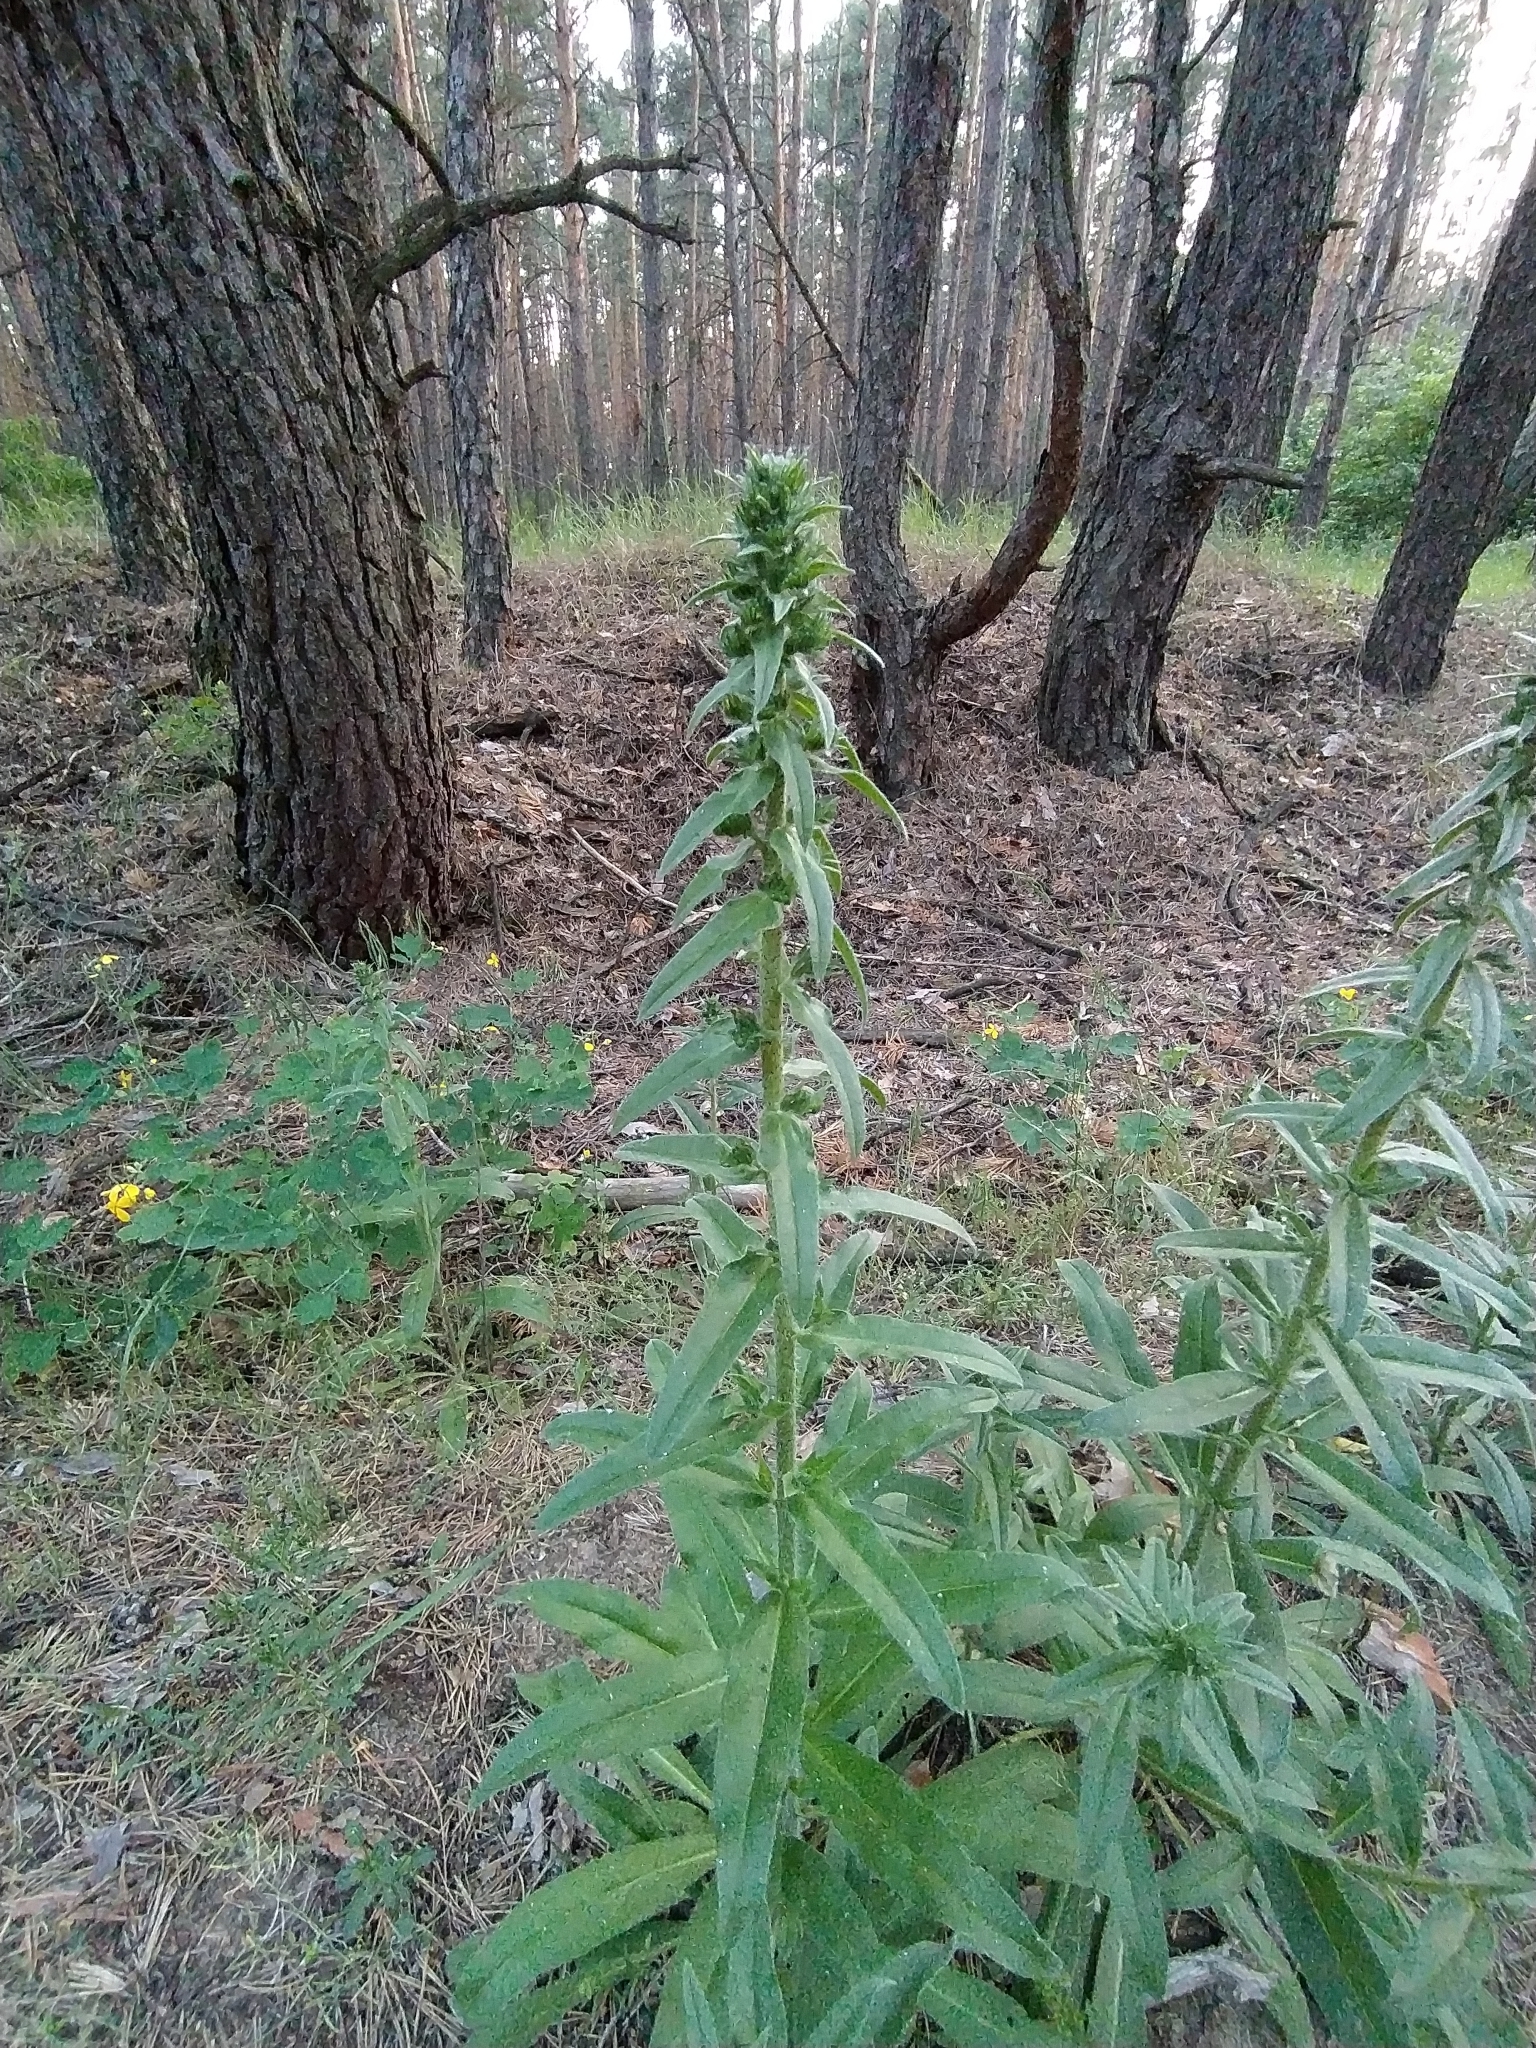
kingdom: Plantae
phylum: Tracheophyta
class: Magnoliopsida
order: Boraginales
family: Boraginaceae
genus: Echium
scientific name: Echium vulgare
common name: Common viper's bugloss
